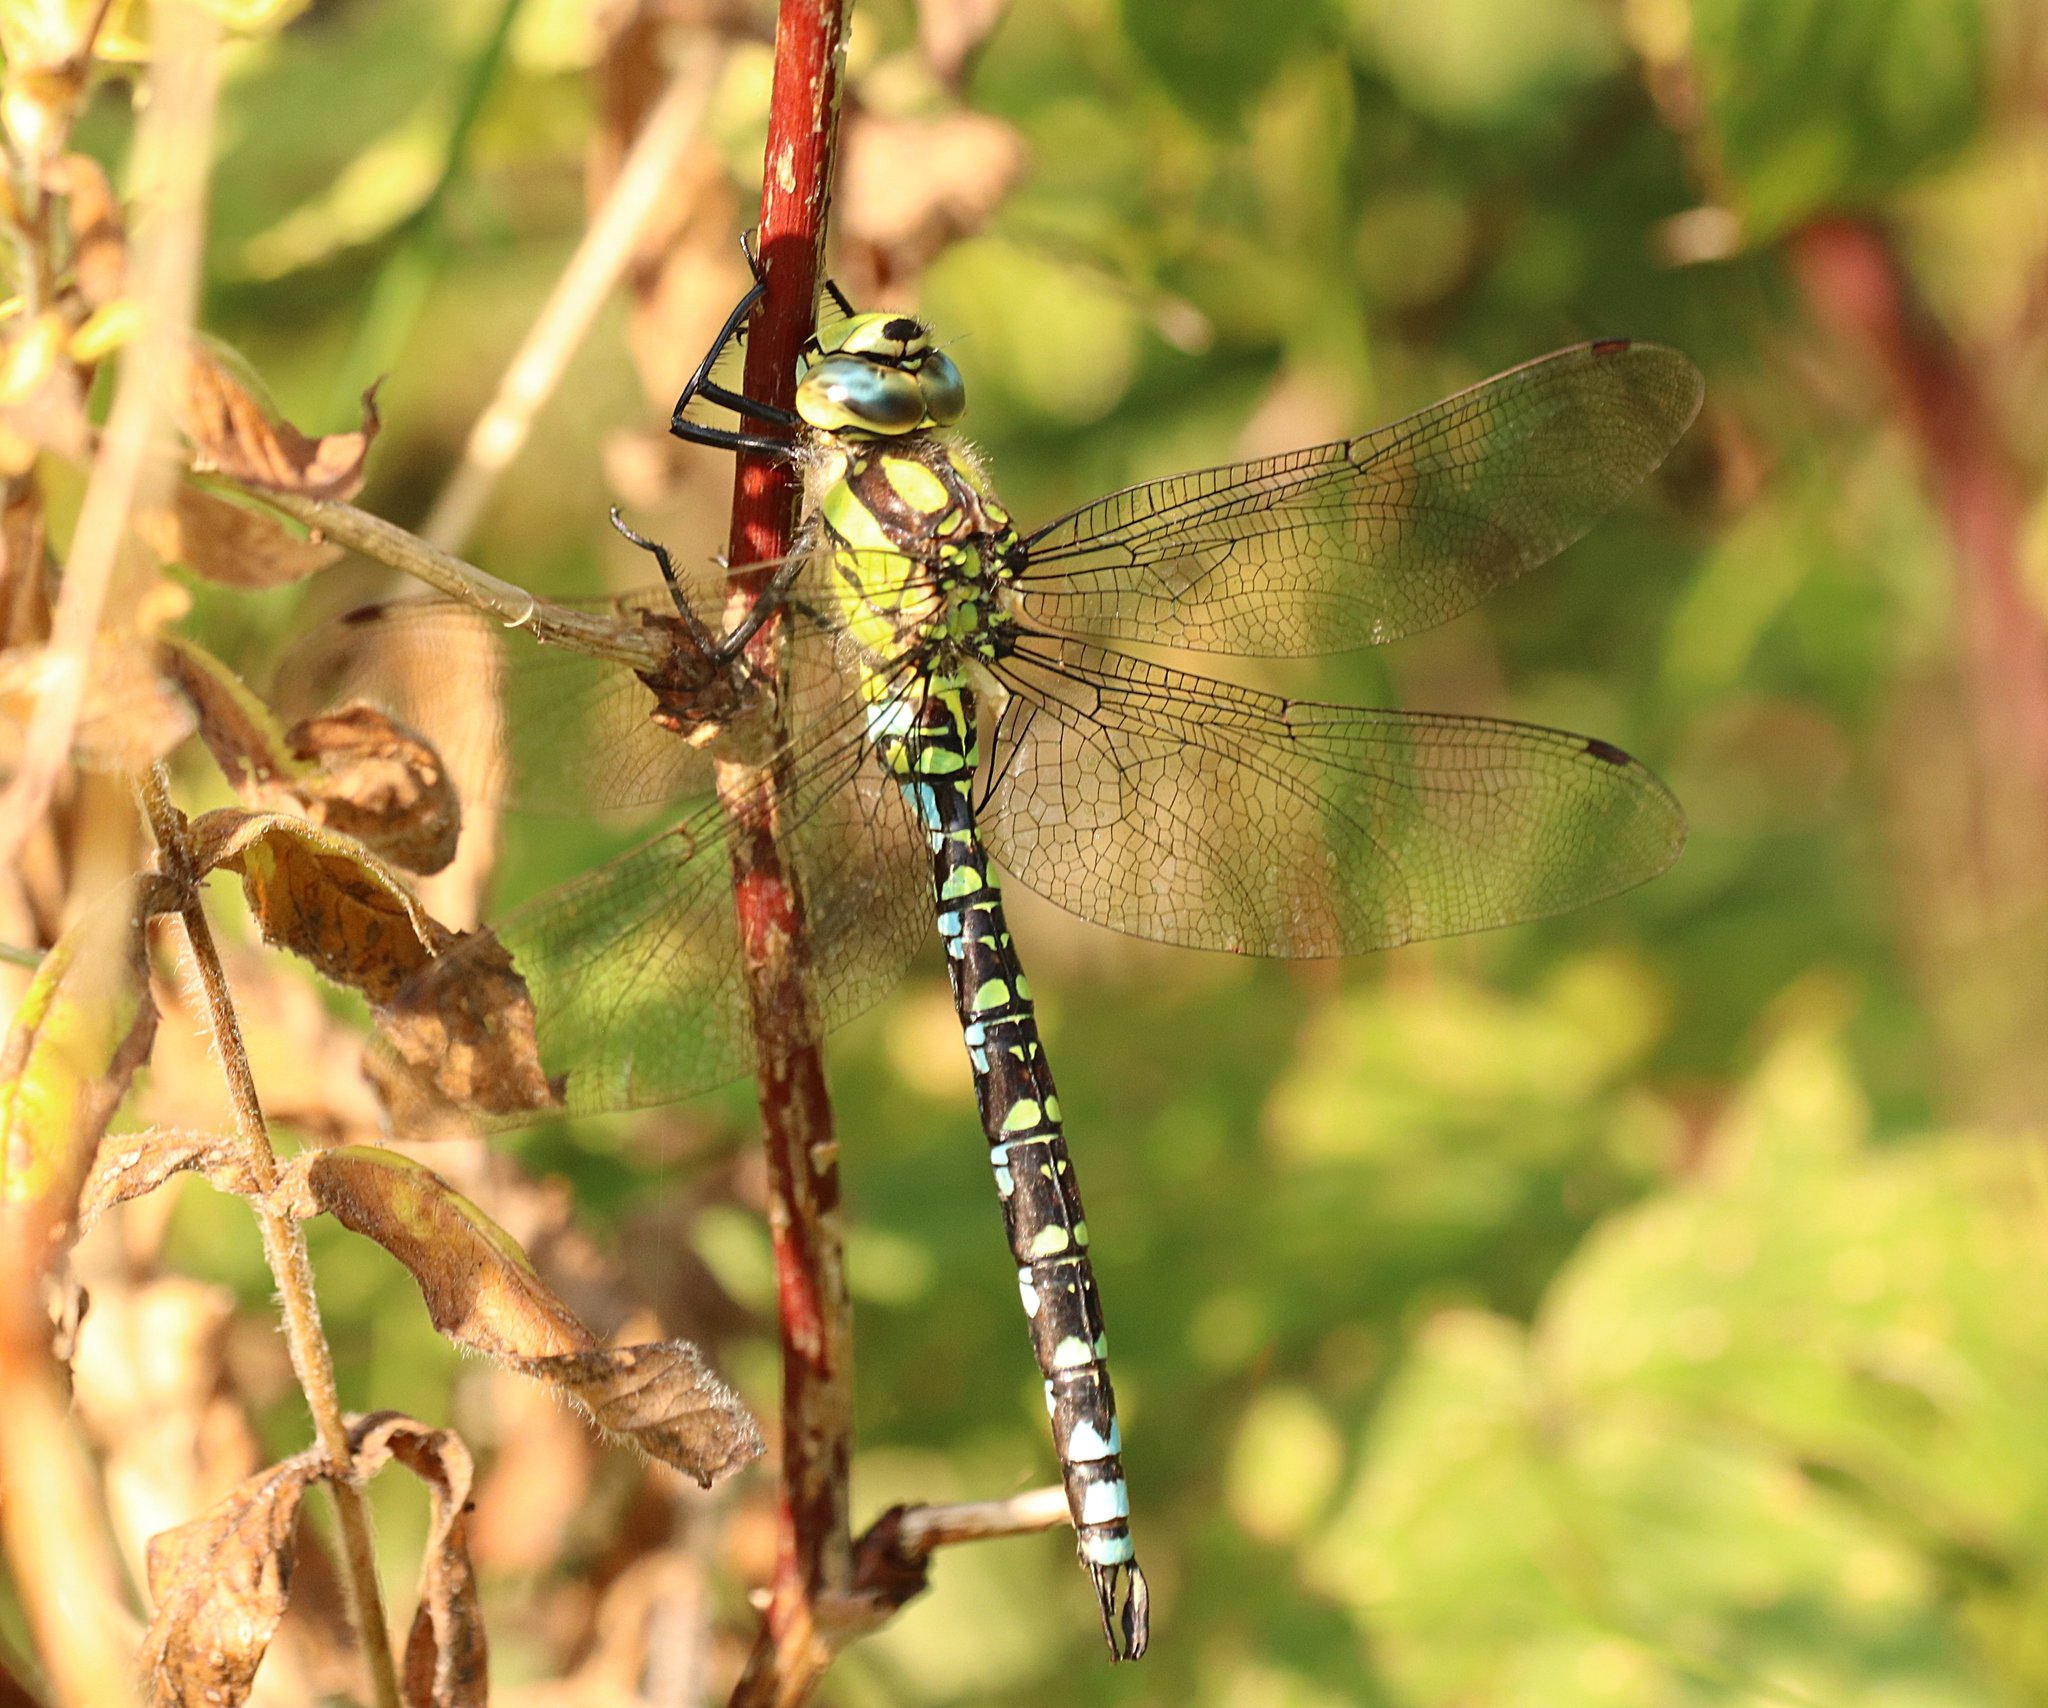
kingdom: Animalia
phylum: Arthropoda
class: Insecta
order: Odonata
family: Aeshnidae
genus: Aeshna
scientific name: Aeshna cyanea
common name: Southern hawker
